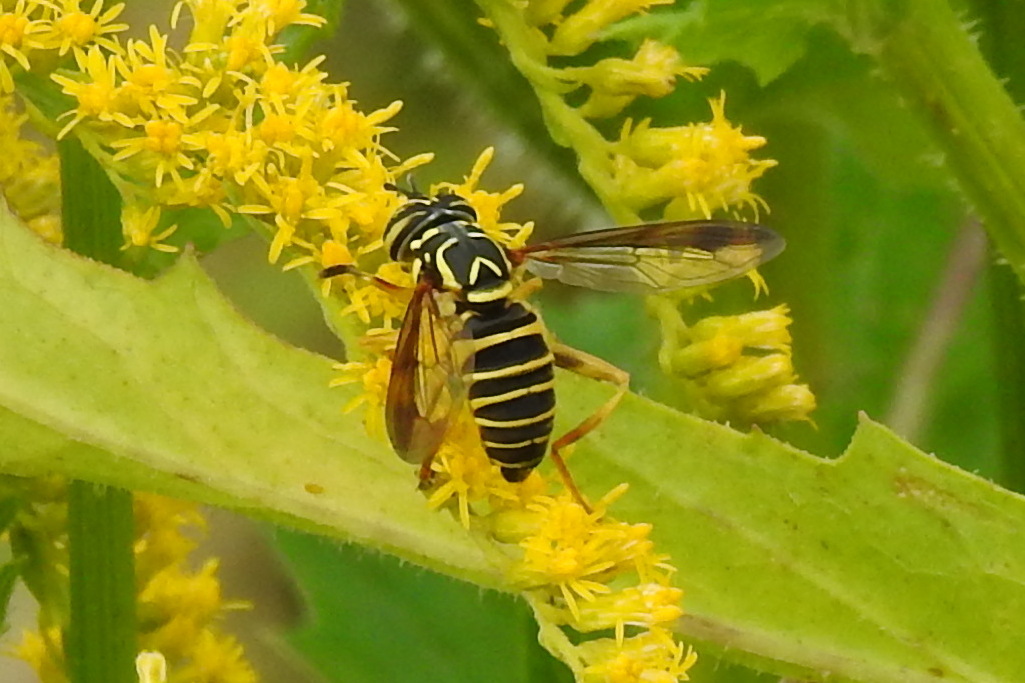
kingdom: Animalia
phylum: Arthropoda
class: Insecta
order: Diptera
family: Syrphidae
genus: Spilomyia
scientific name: Spilomyia longicornis
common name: Eastern hornet fly
